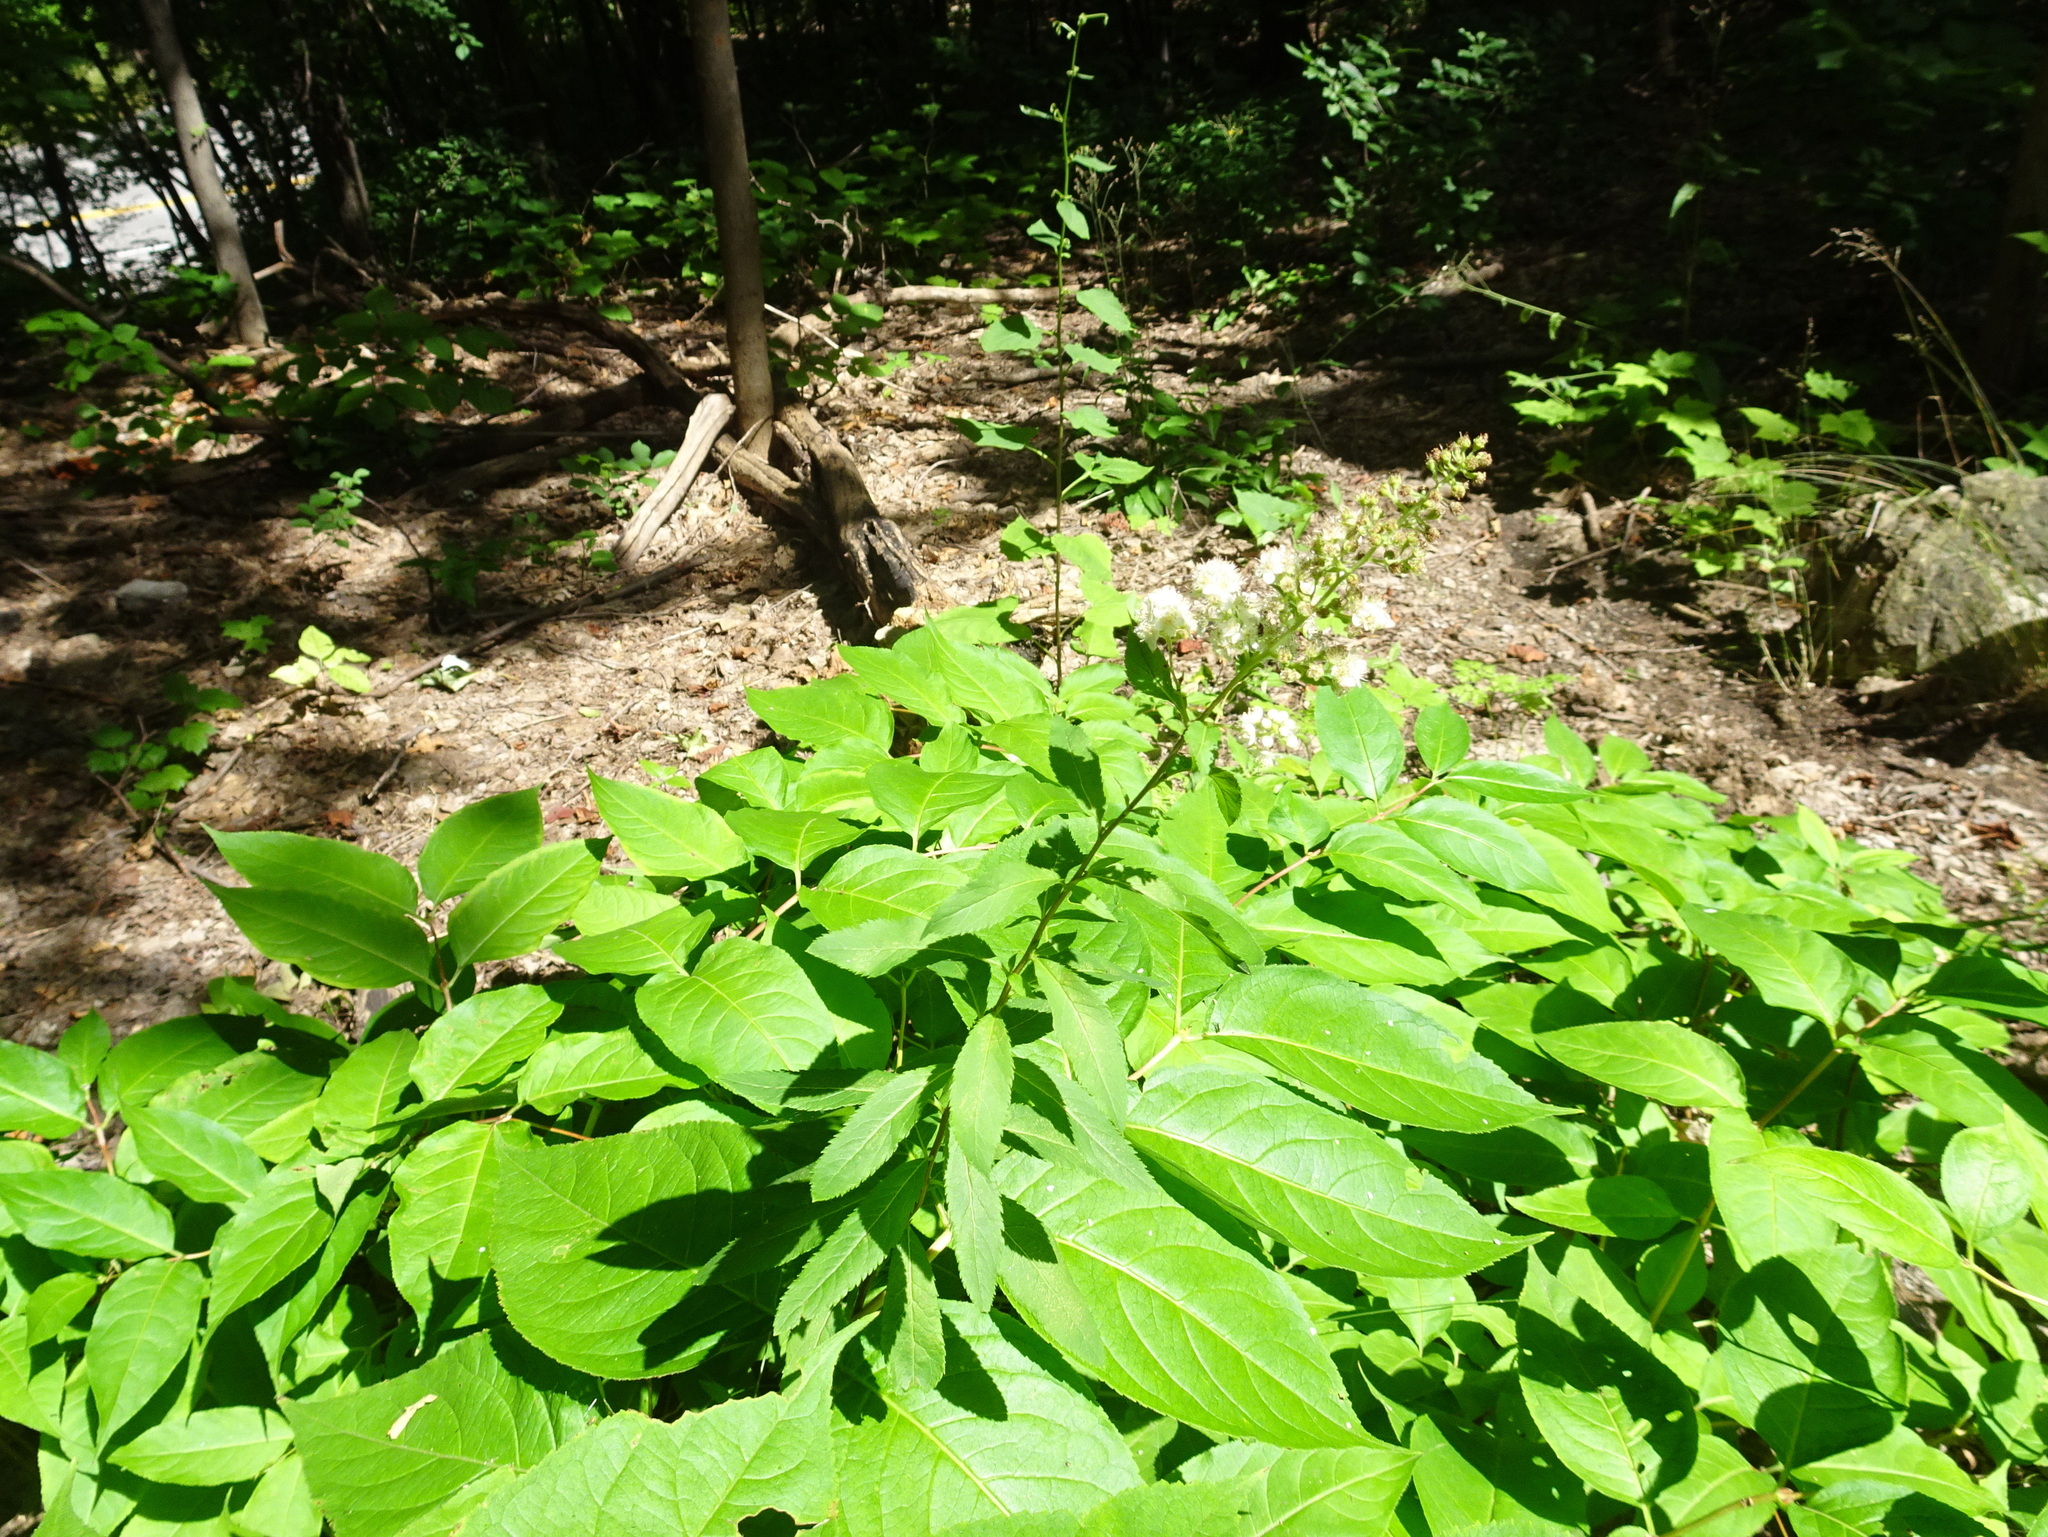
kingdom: Plantae
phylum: Tracheophyta
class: Magnoliopsida
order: Rosales
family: Rosaceae
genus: Spiraea
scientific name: Spiraea alba
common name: Pale bridewort
